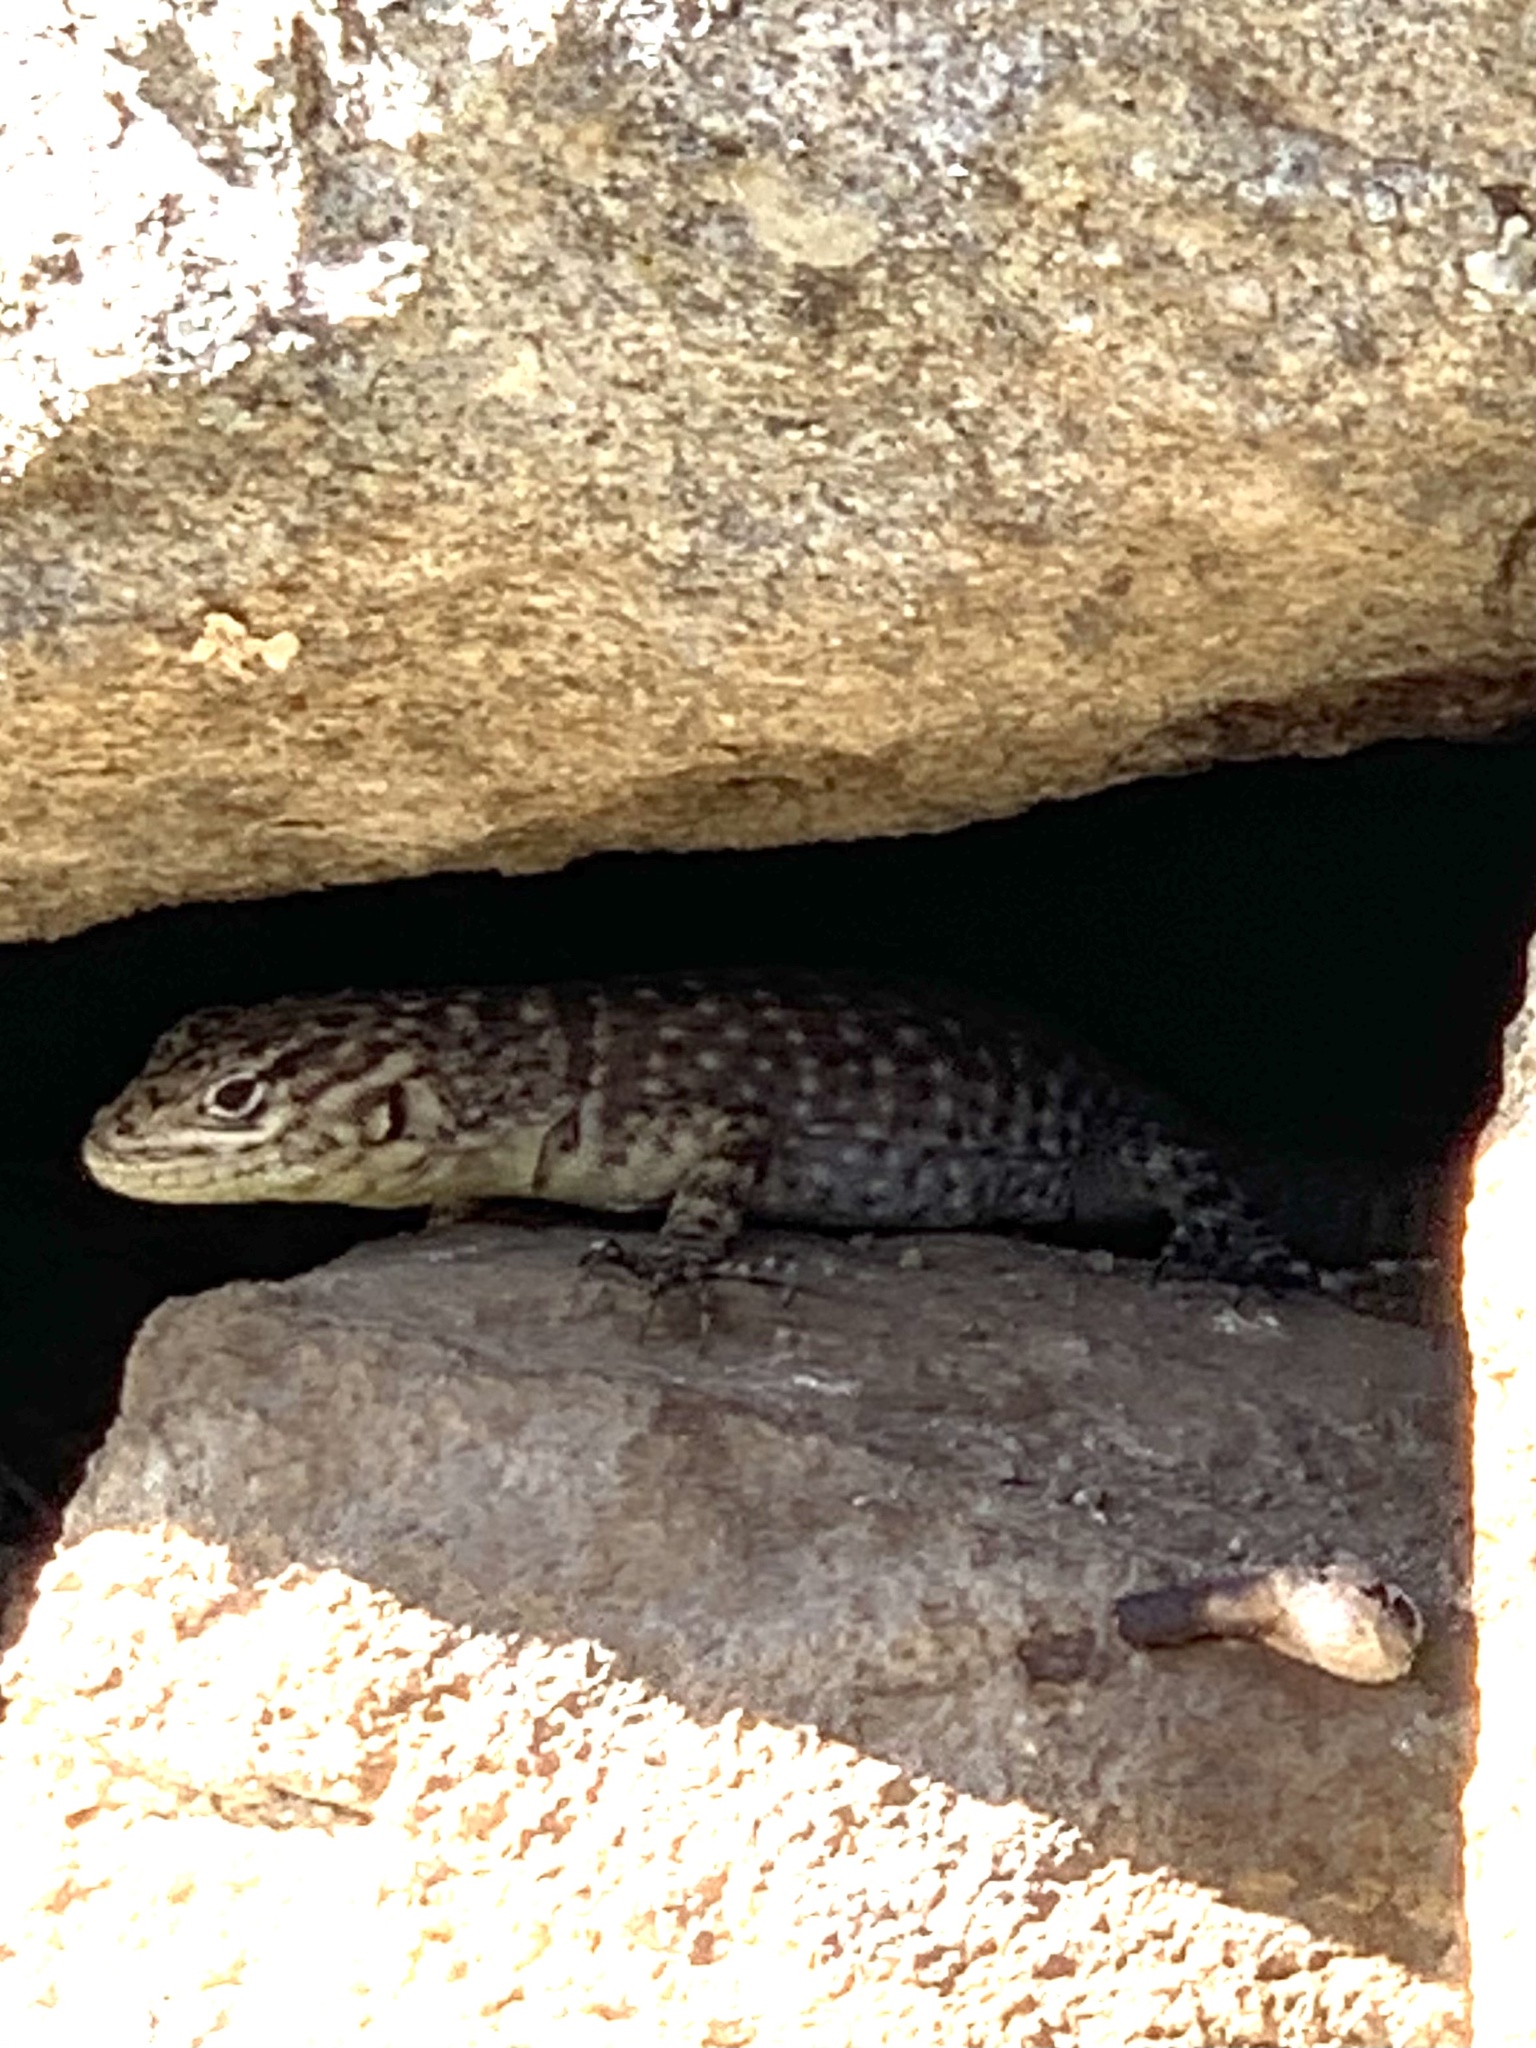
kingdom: Animalia
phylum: Chordata
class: Squamata
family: Tropiduridae
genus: Stenocercus
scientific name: Stenocercus crassicaudatus
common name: Spiny whorltail iguana
